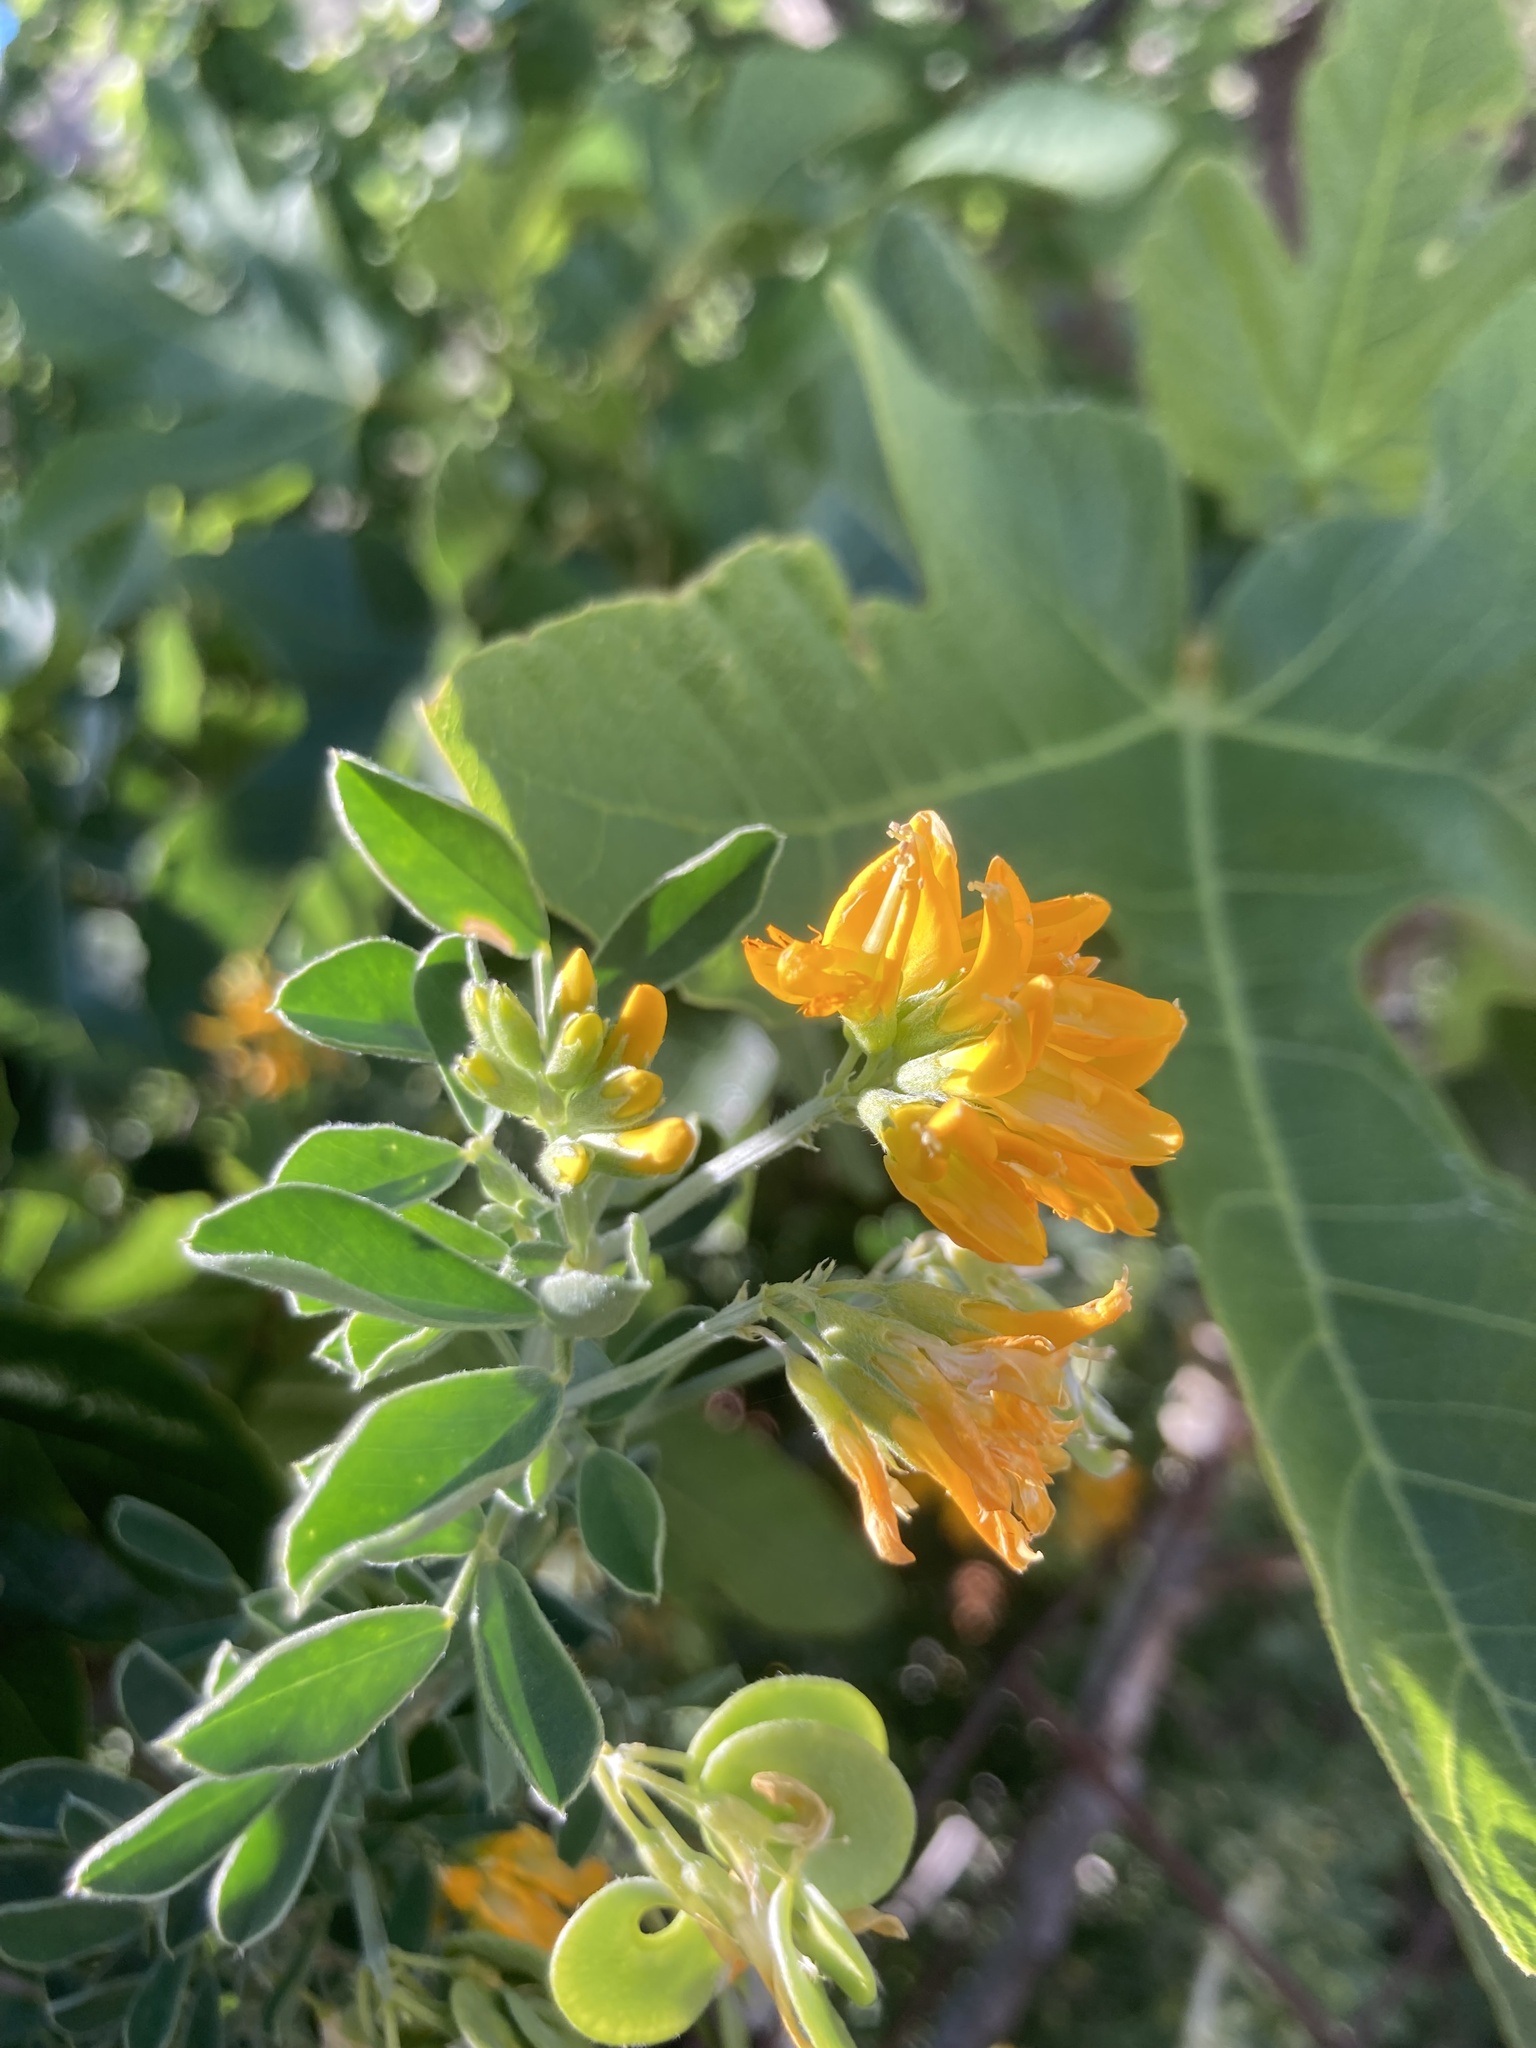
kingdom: Plantae
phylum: Tracheophyta
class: Magnoliopsida
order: Fabales
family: Fabaceae
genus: Medicago
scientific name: Medicago arborea
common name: Moon trefoil
